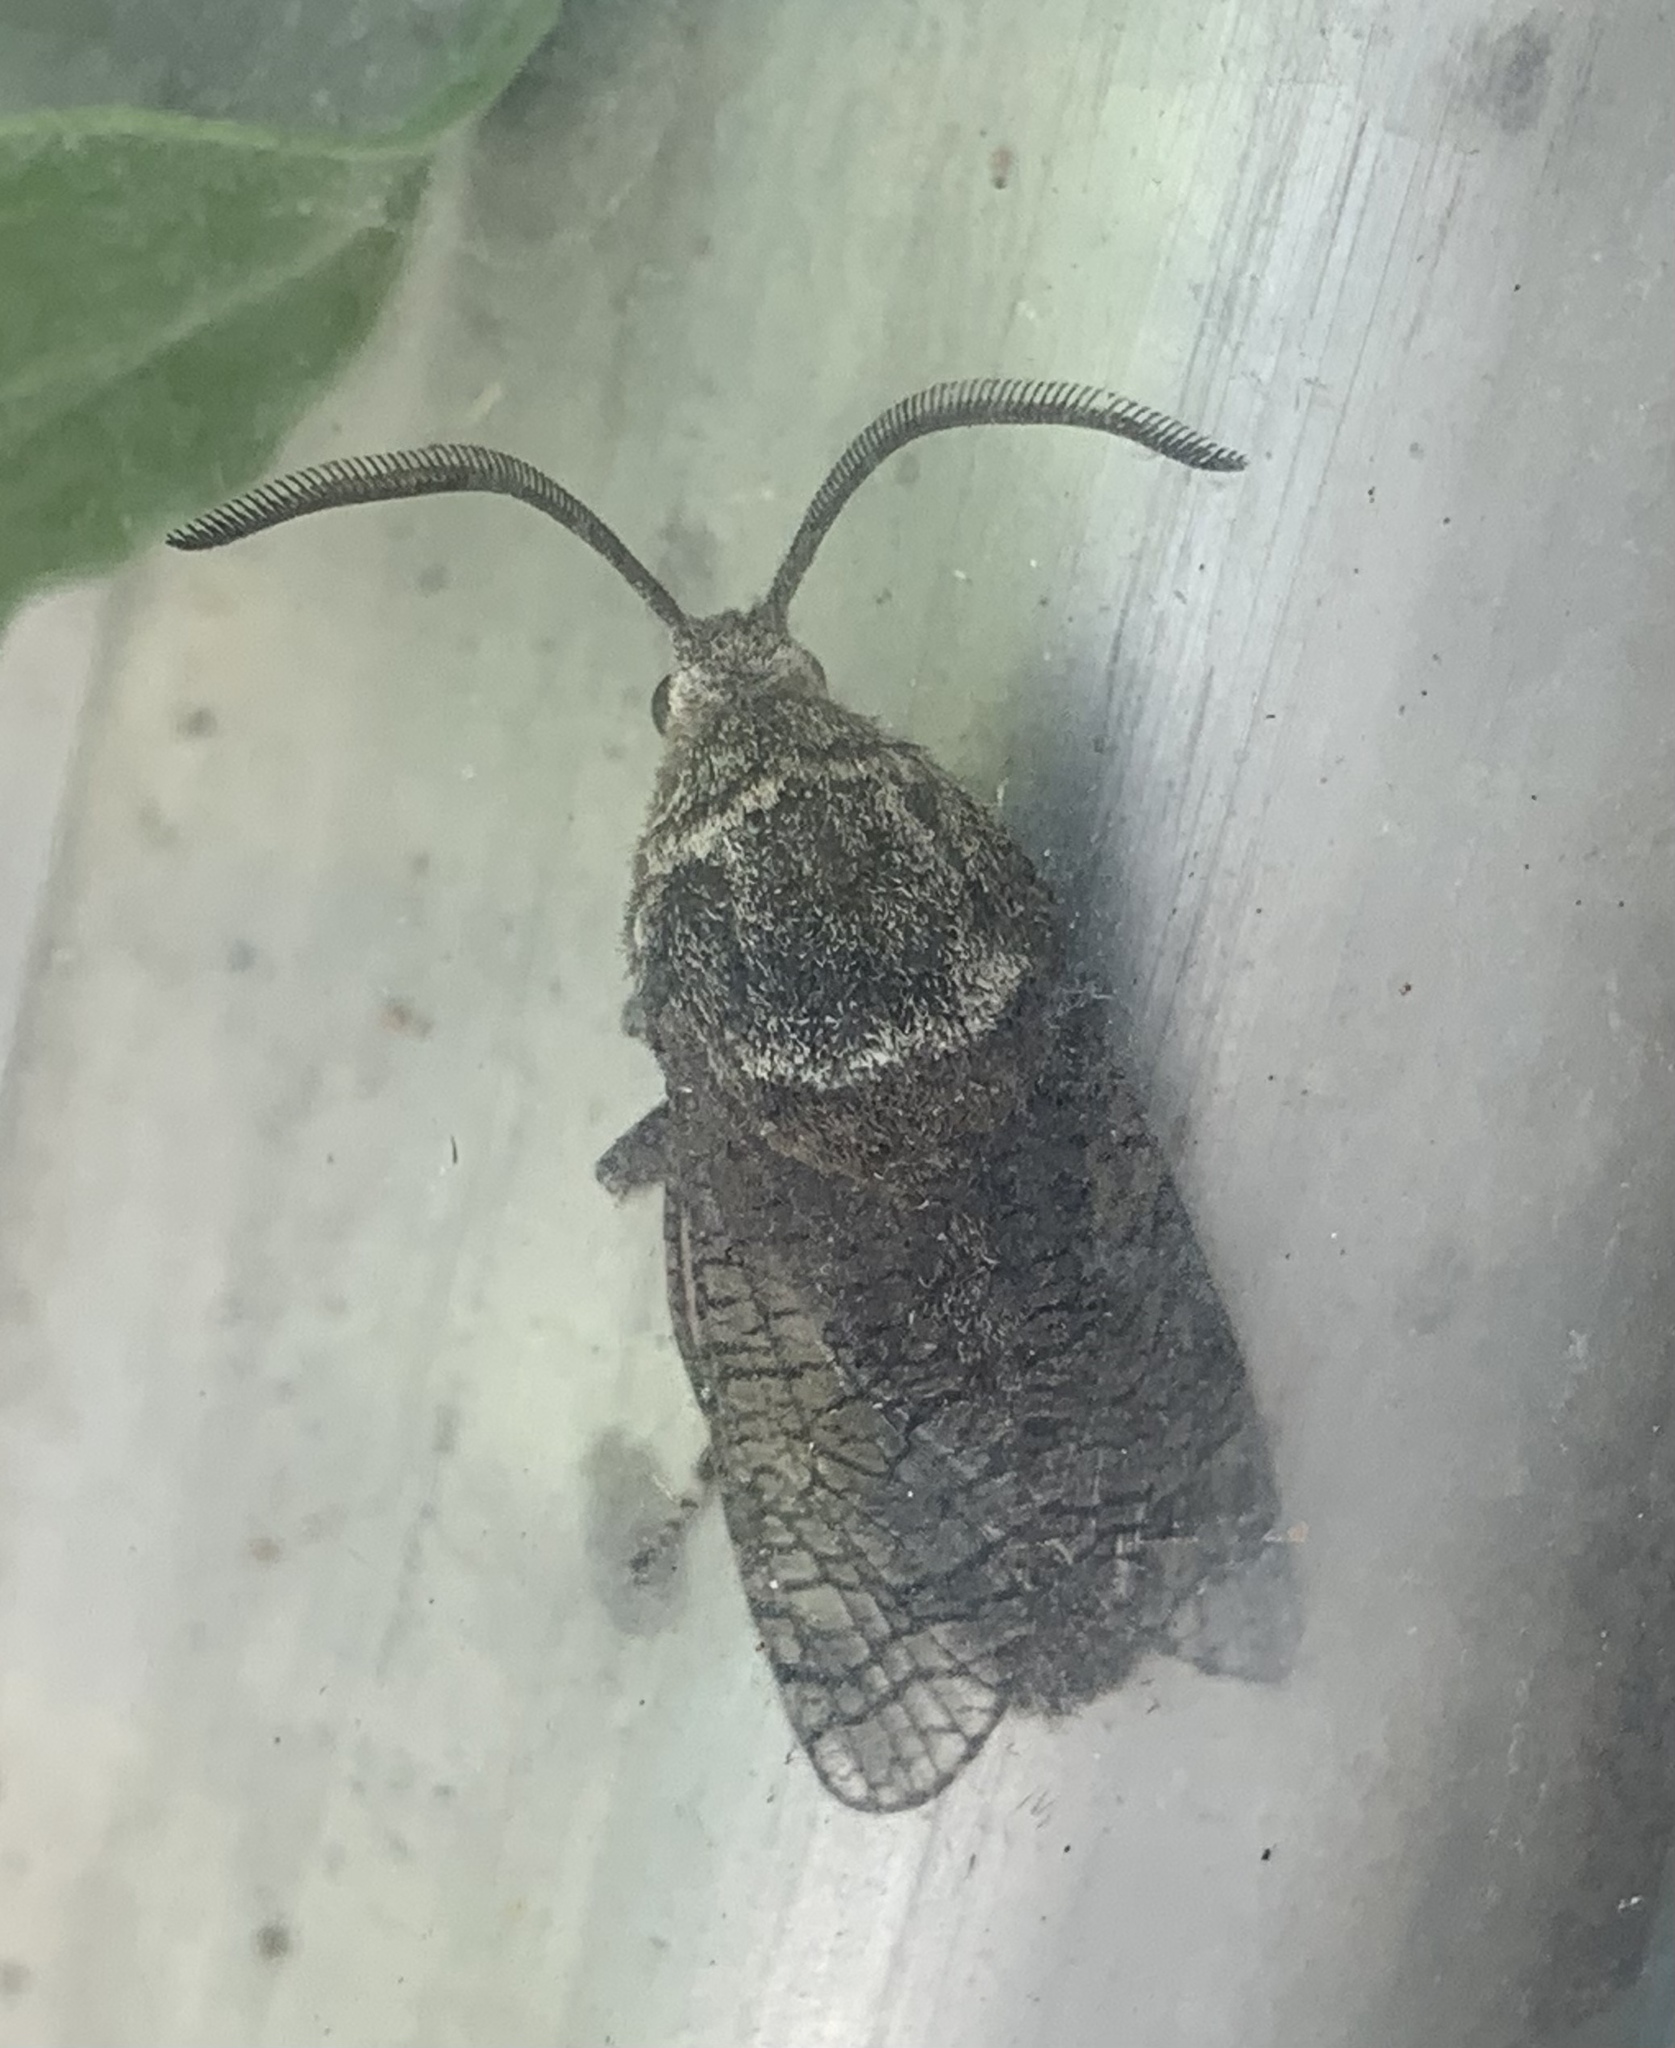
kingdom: Animalia
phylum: Arthropoda
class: Insecta
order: Lepidoptera
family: Cossidae
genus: Prionoxystus
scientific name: Prionoxystus macmurtrei
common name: Little carpenterworm
